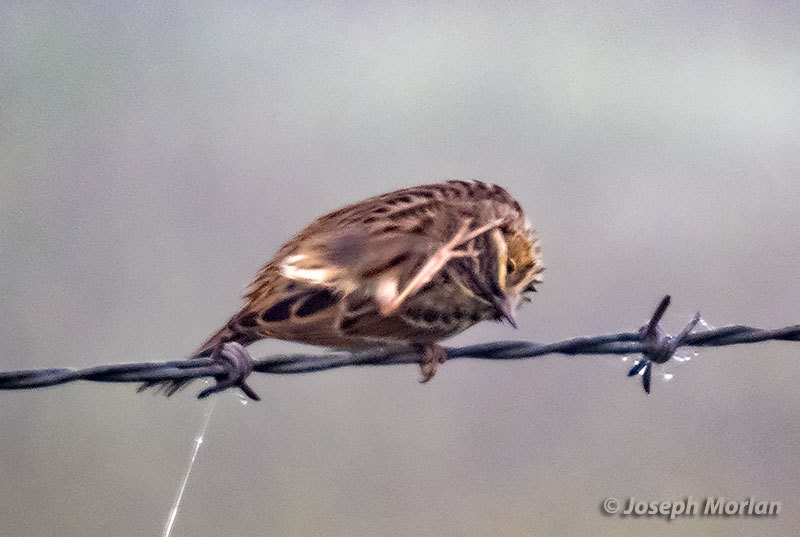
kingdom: Animalia
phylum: Chordata
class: Aves
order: Passeriformes
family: Passerellidae
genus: Passerculus
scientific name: Passerculus sandwichensis
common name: Savannah sparrow
